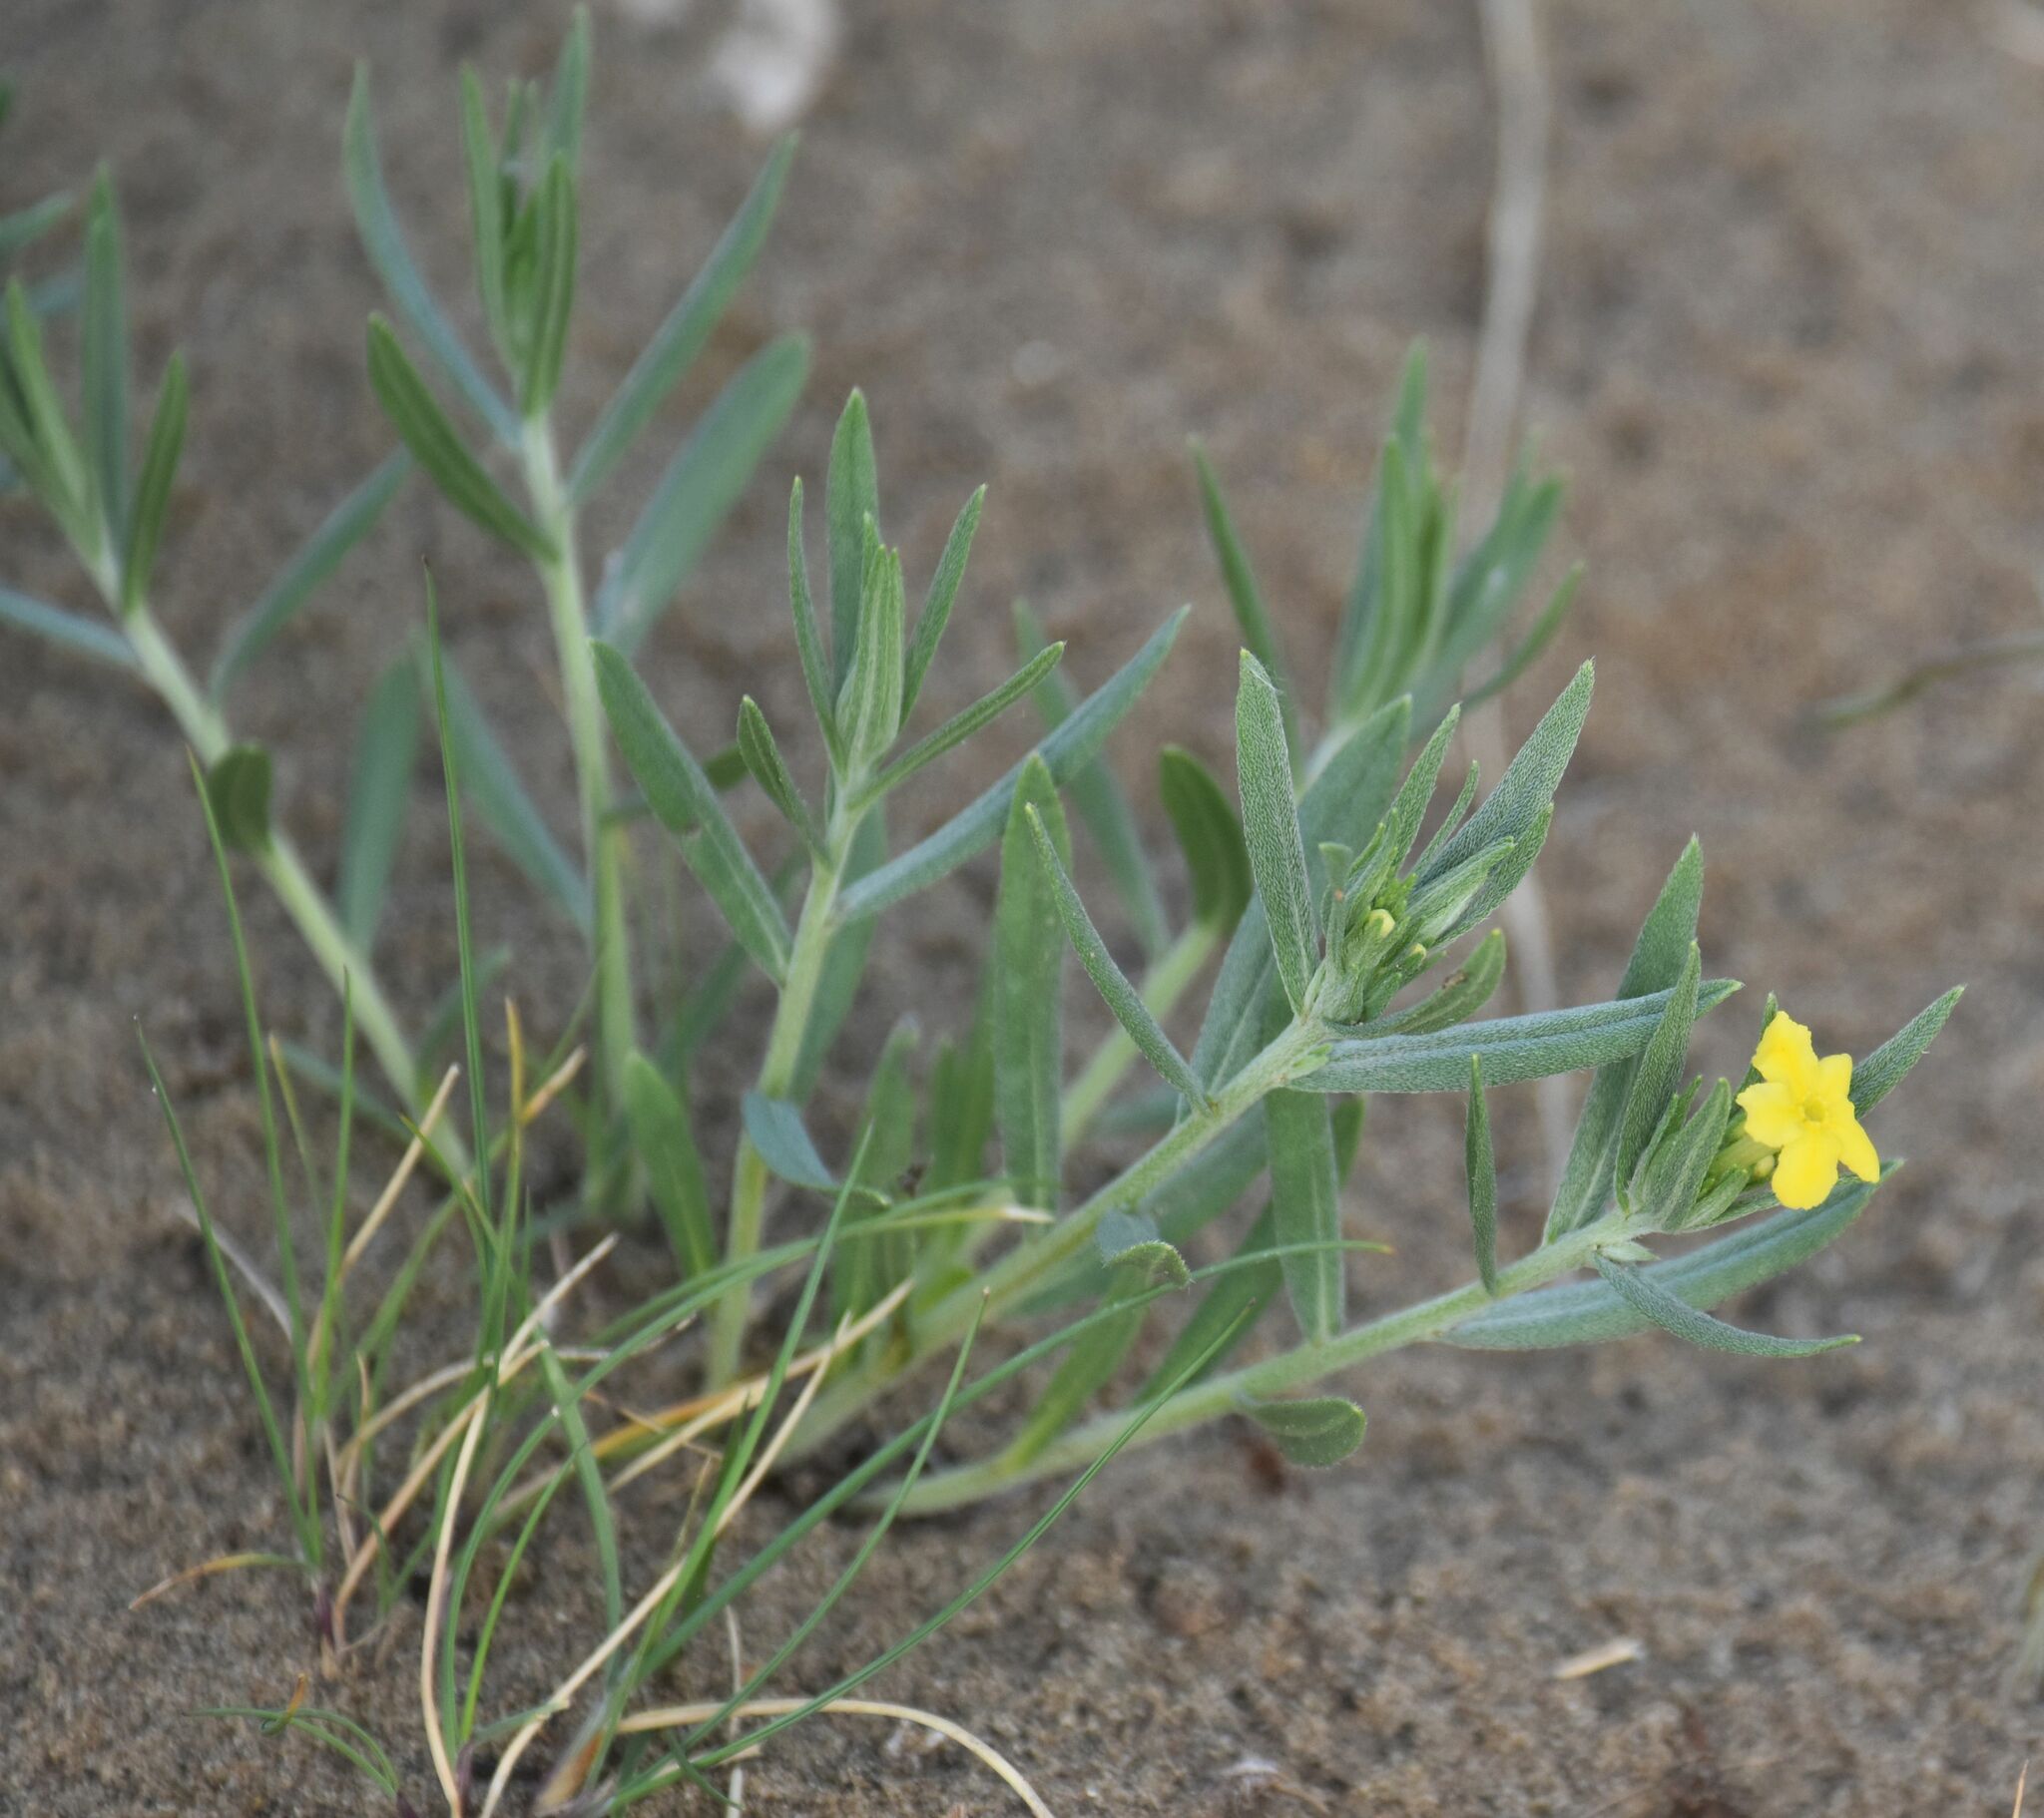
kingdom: Plantae
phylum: Tracheophyta
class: Magnoliopsida
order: Boraginales
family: Boraginaceae
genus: Lithospermum
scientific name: Lithospermum incisum
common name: Fringed gromwell
